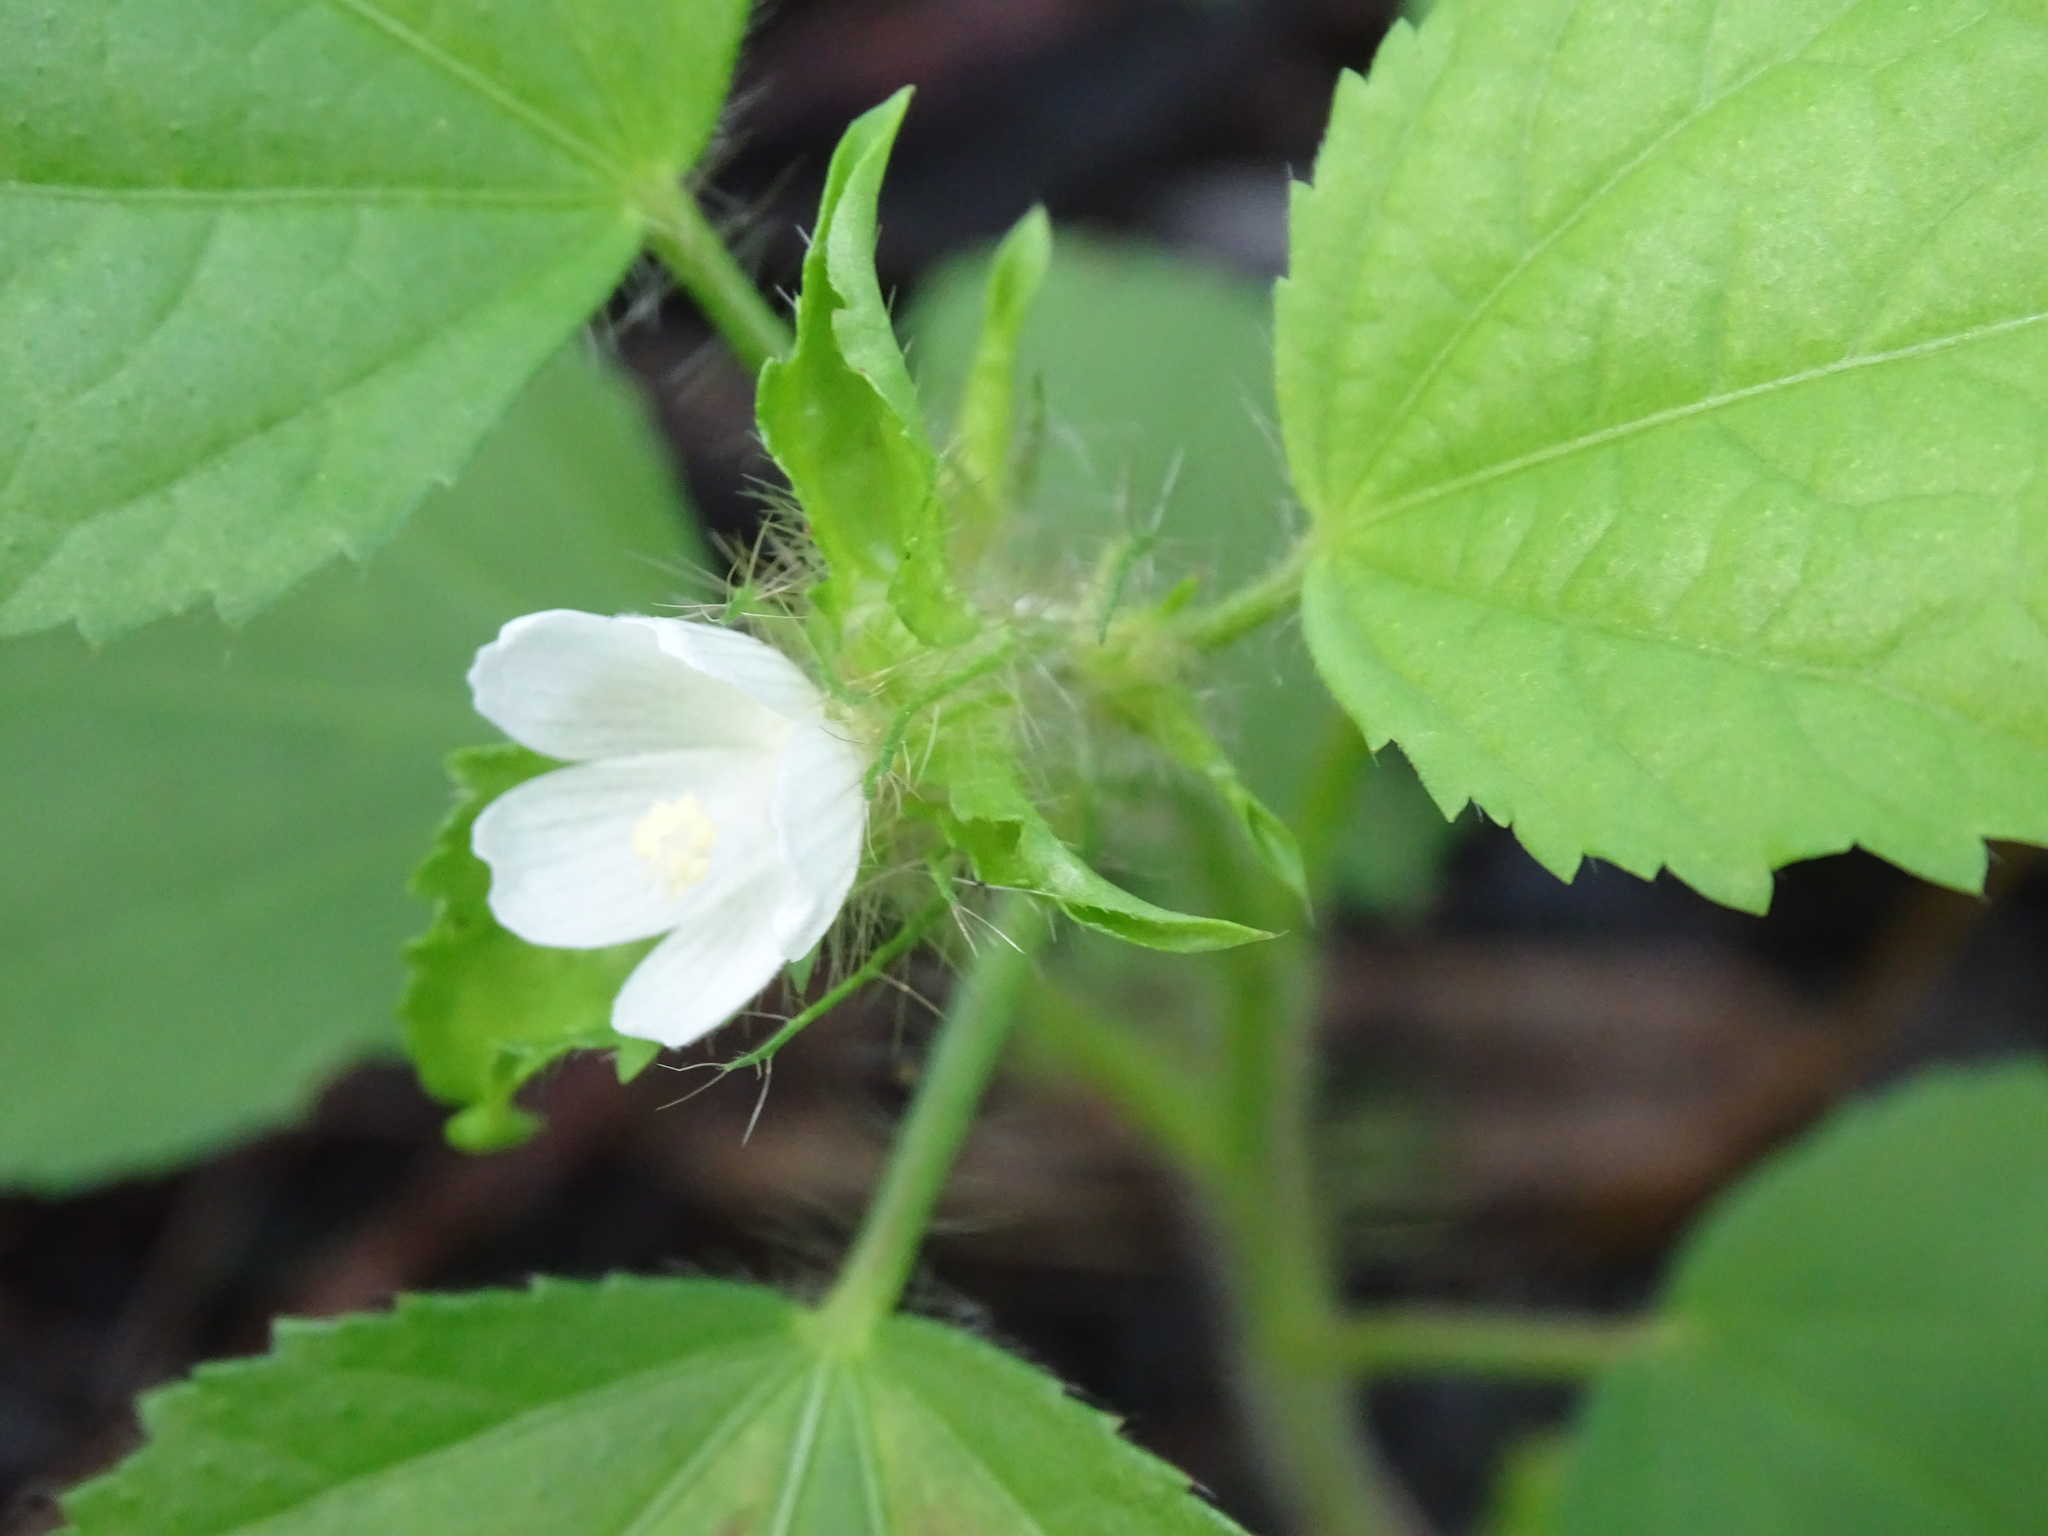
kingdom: Plantae
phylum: Tracheophyta
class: Magnoliopsida
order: Malvales
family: Malvaceae
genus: Malachra
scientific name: Malachra fasciata
